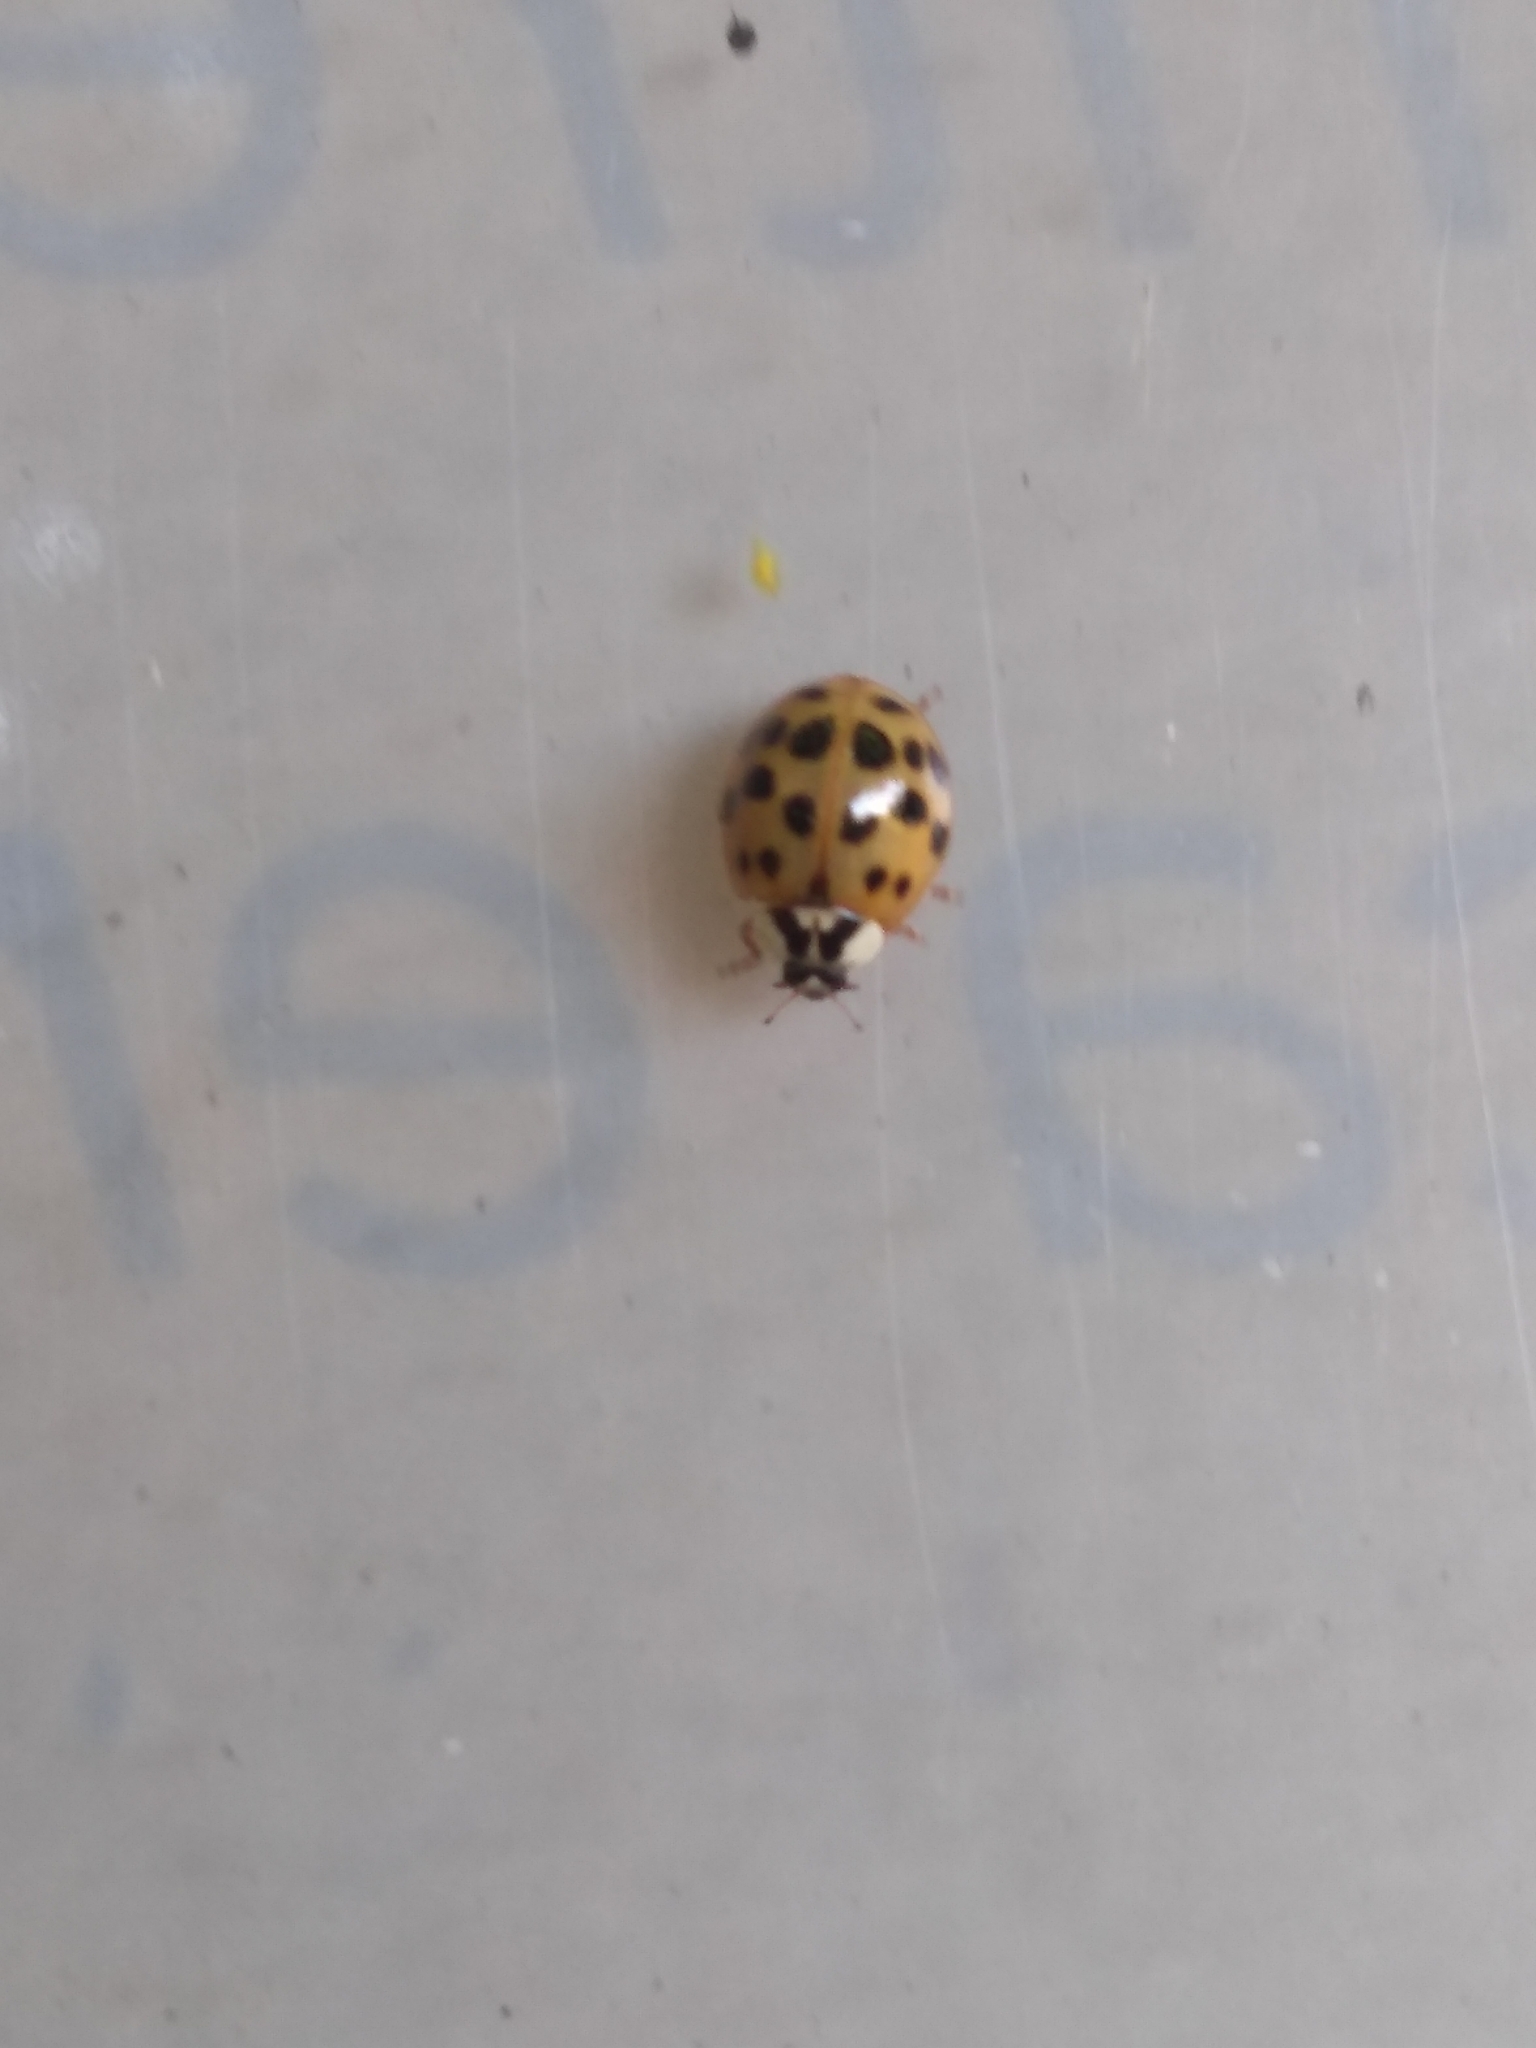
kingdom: Animalia
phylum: Arthropoda
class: Insecta
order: Coleoptera
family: Coccinellidae
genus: Harmonia
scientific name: Harmonia axyridis
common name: Harlequin ladybird
